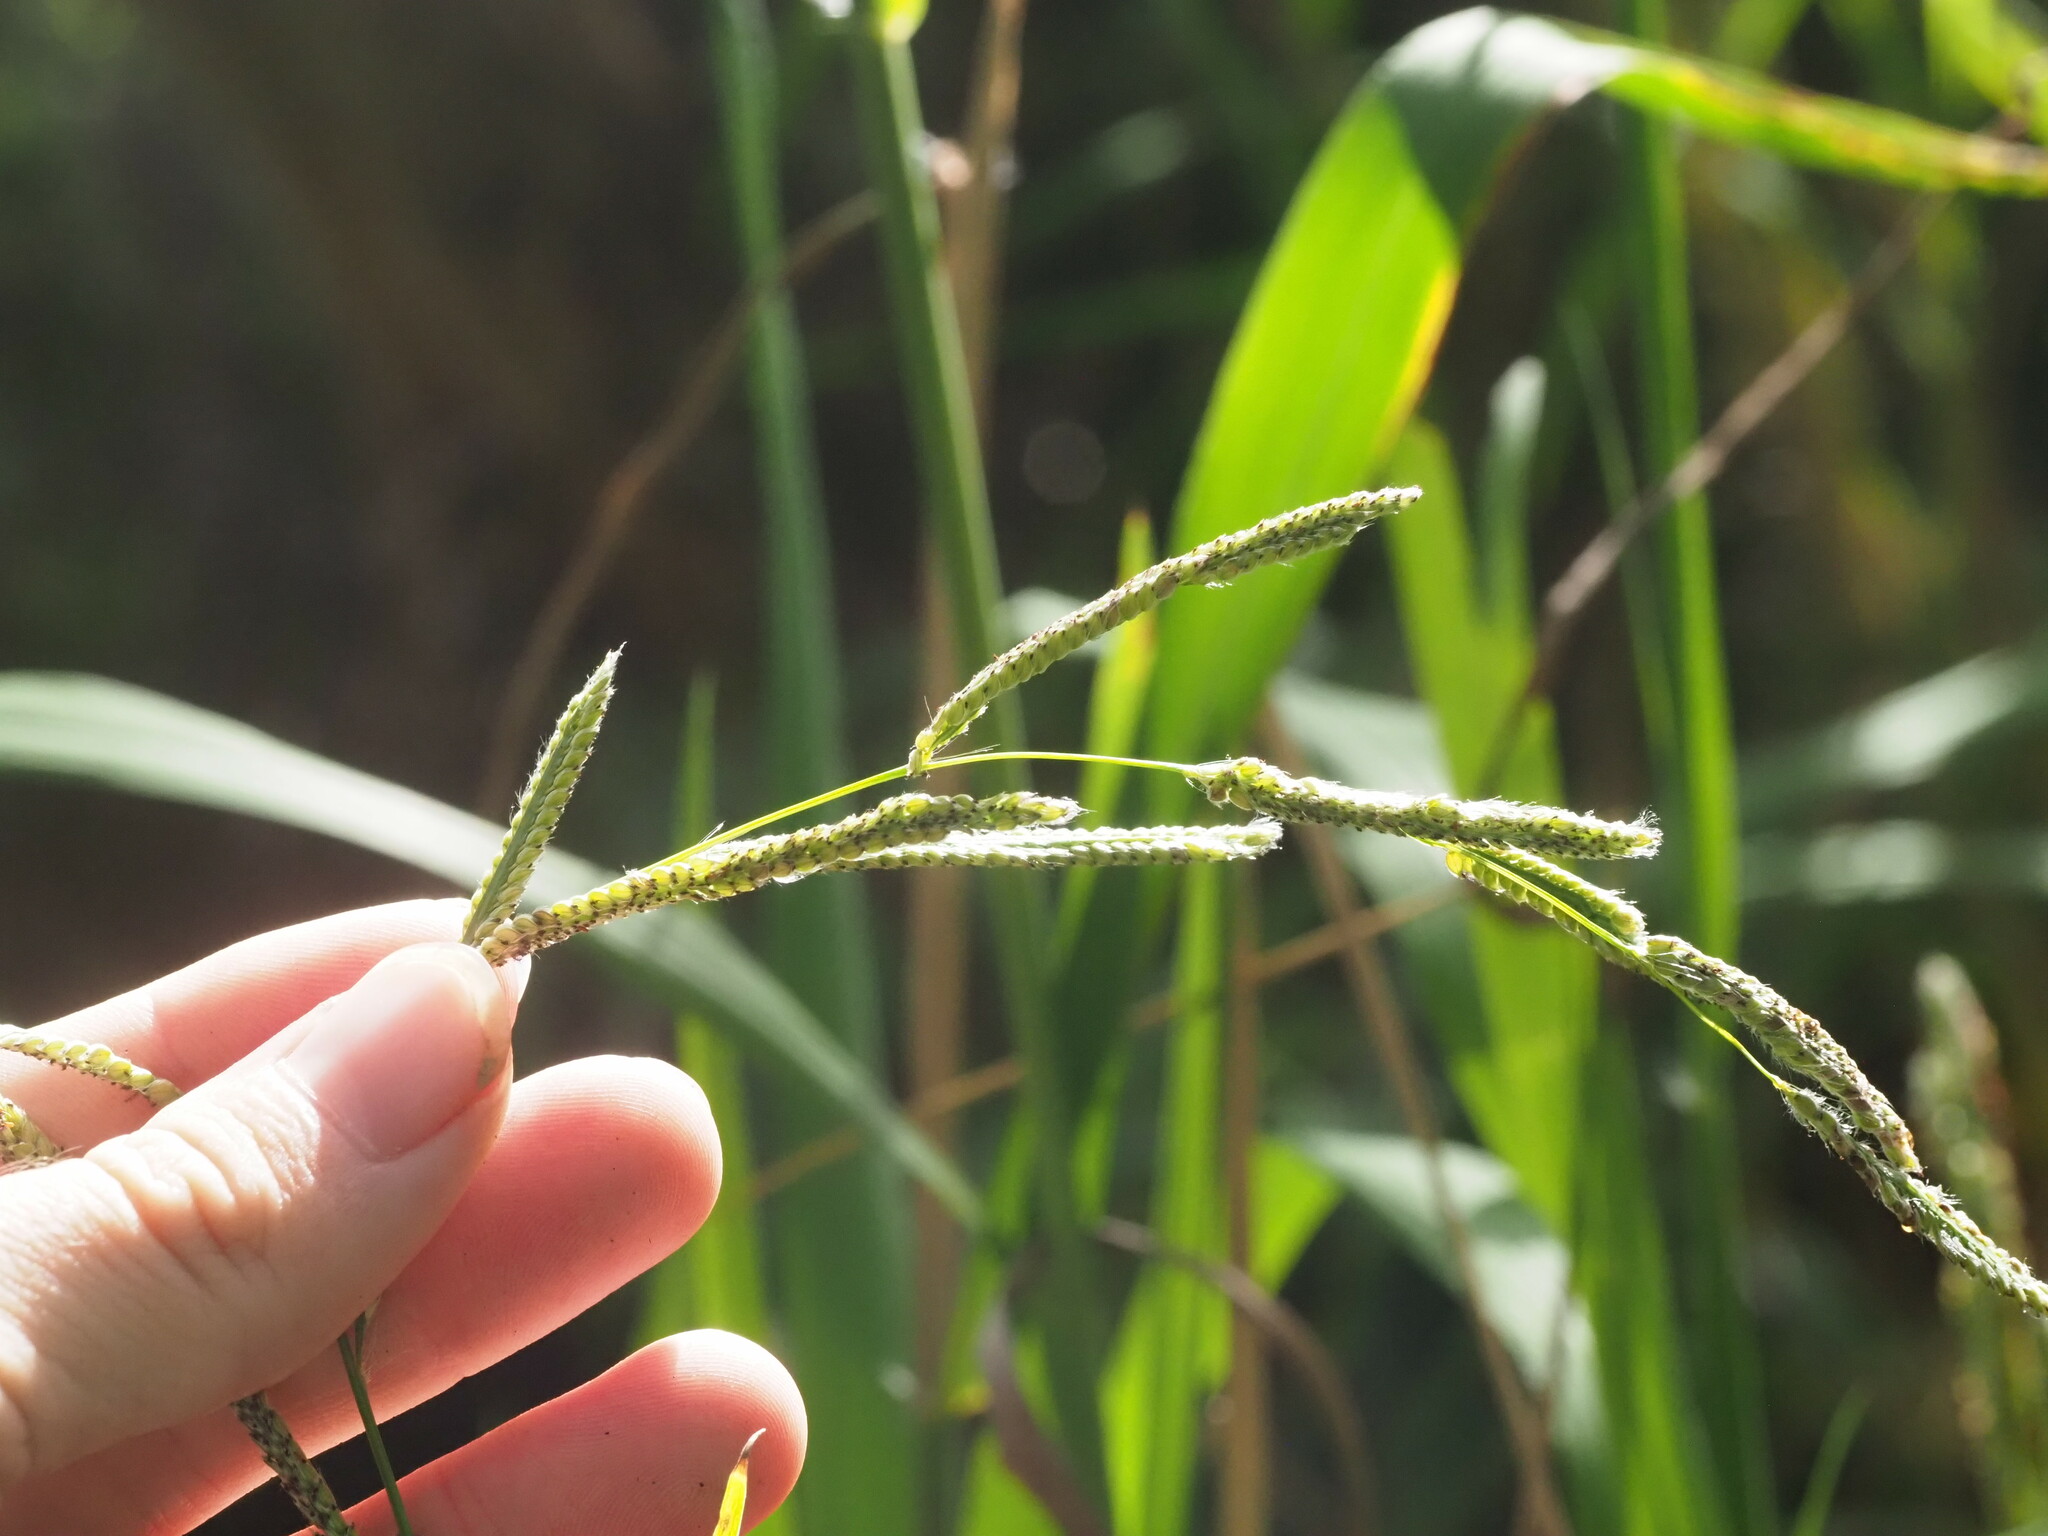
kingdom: Plantae
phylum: Tracheophyta
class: Liliopsida
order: Poales
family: Poaceae
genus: Paspalum
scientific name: Paspalum urvillei
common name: Vasey's grass
